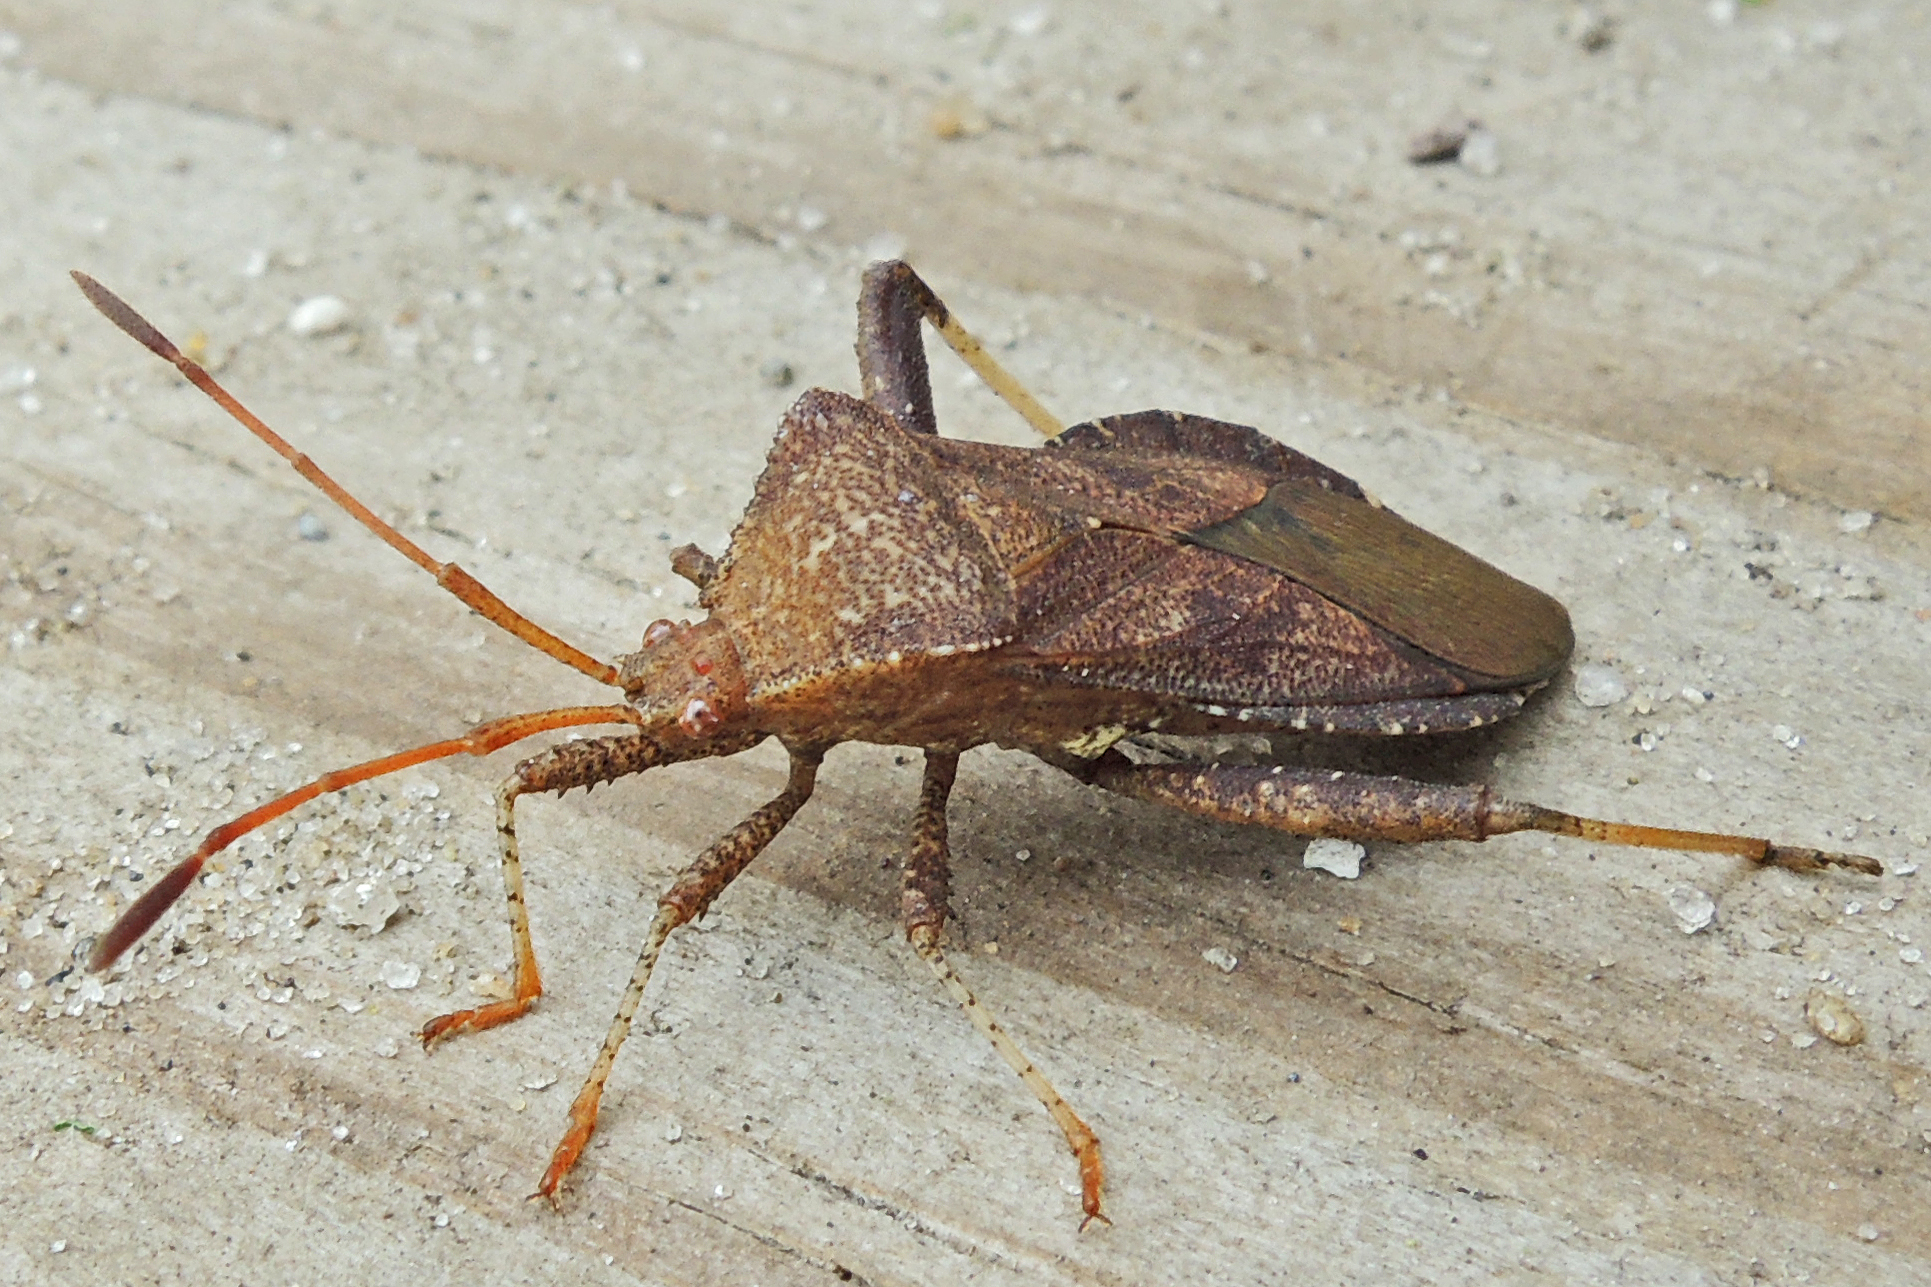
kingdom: Animalia
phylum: Arthropoda
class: Insecta
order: Hemiptera
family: Coreidae
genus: Euthochtha
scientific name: Euthochtha galeator
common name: Helmeted squash bug
